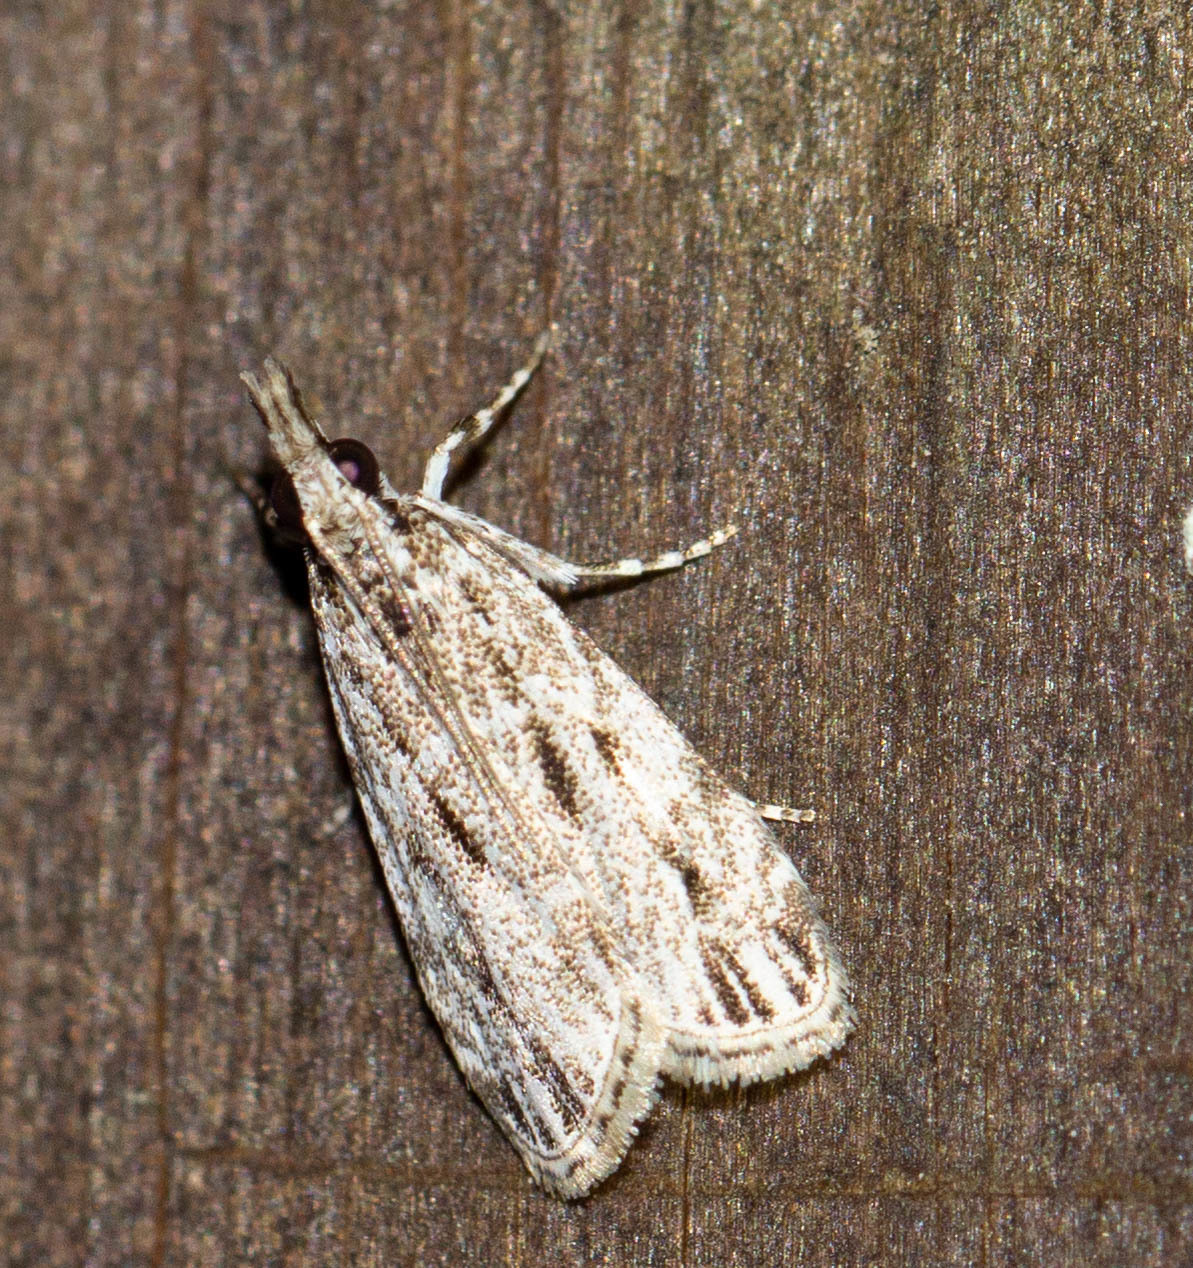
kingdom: Animalia
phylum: Arthropoda
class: Insecta
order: Lepidoptera
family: Crambidae
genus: Eudonia
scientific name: Eudonia strigalis
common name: Striped eudonia moth
